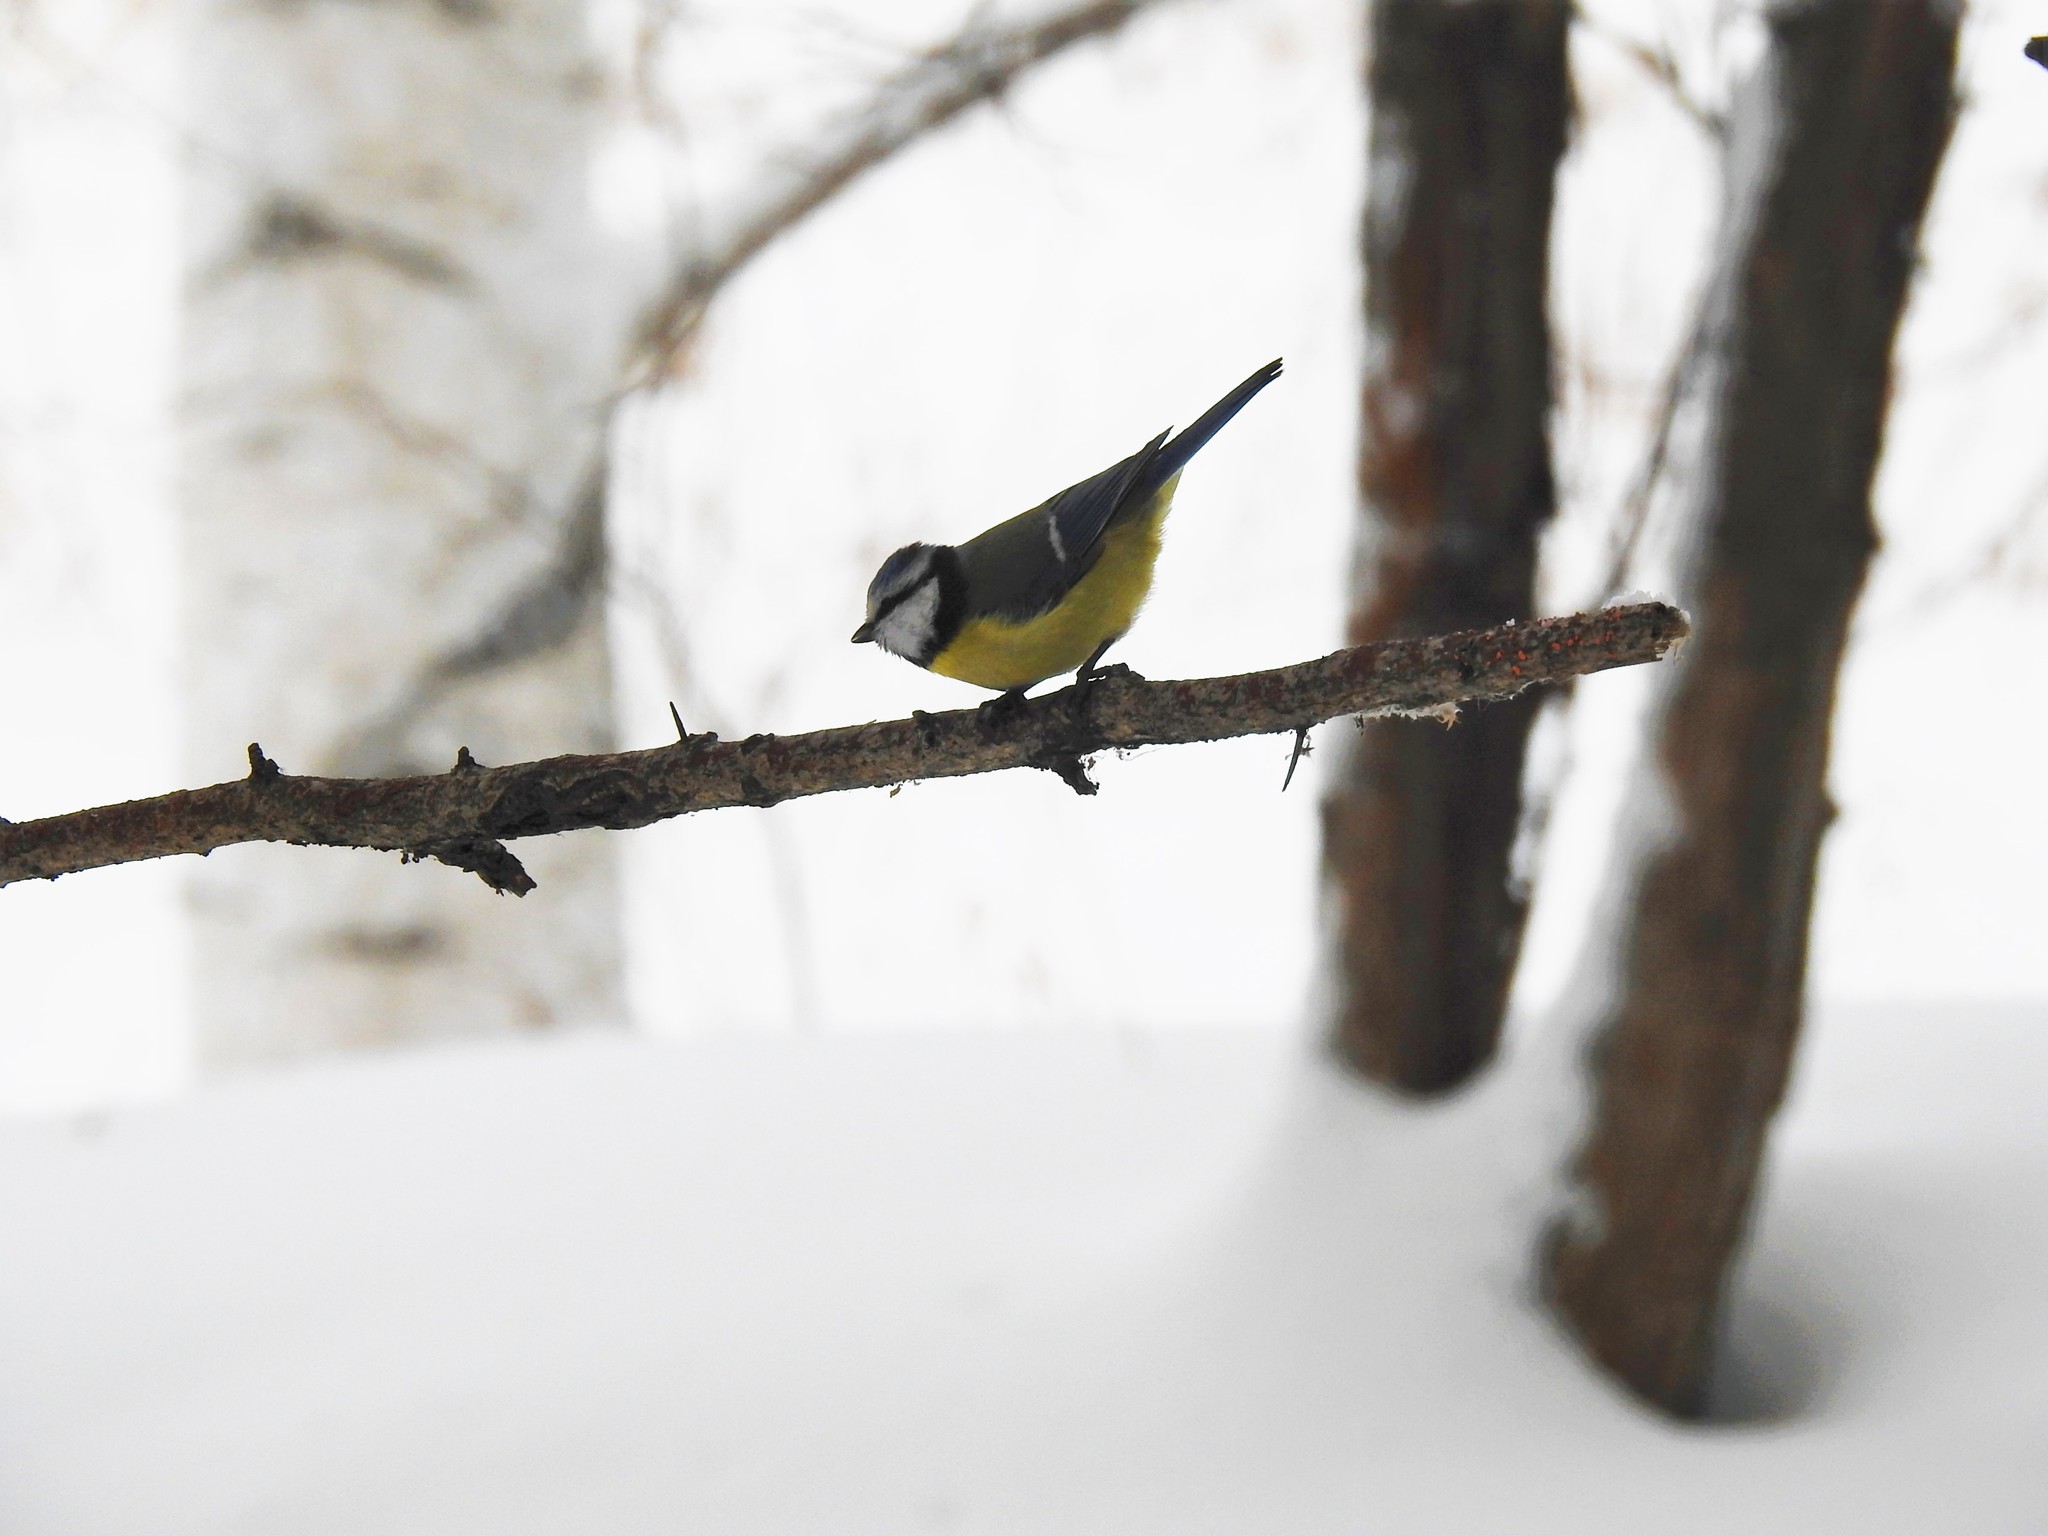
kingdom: Animalia
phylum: Chordata
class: Aves
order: Passeriformes
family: Paridae
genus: Cyanistes
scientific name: Cyanistes caeruleus
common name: Eurasian blue tit
